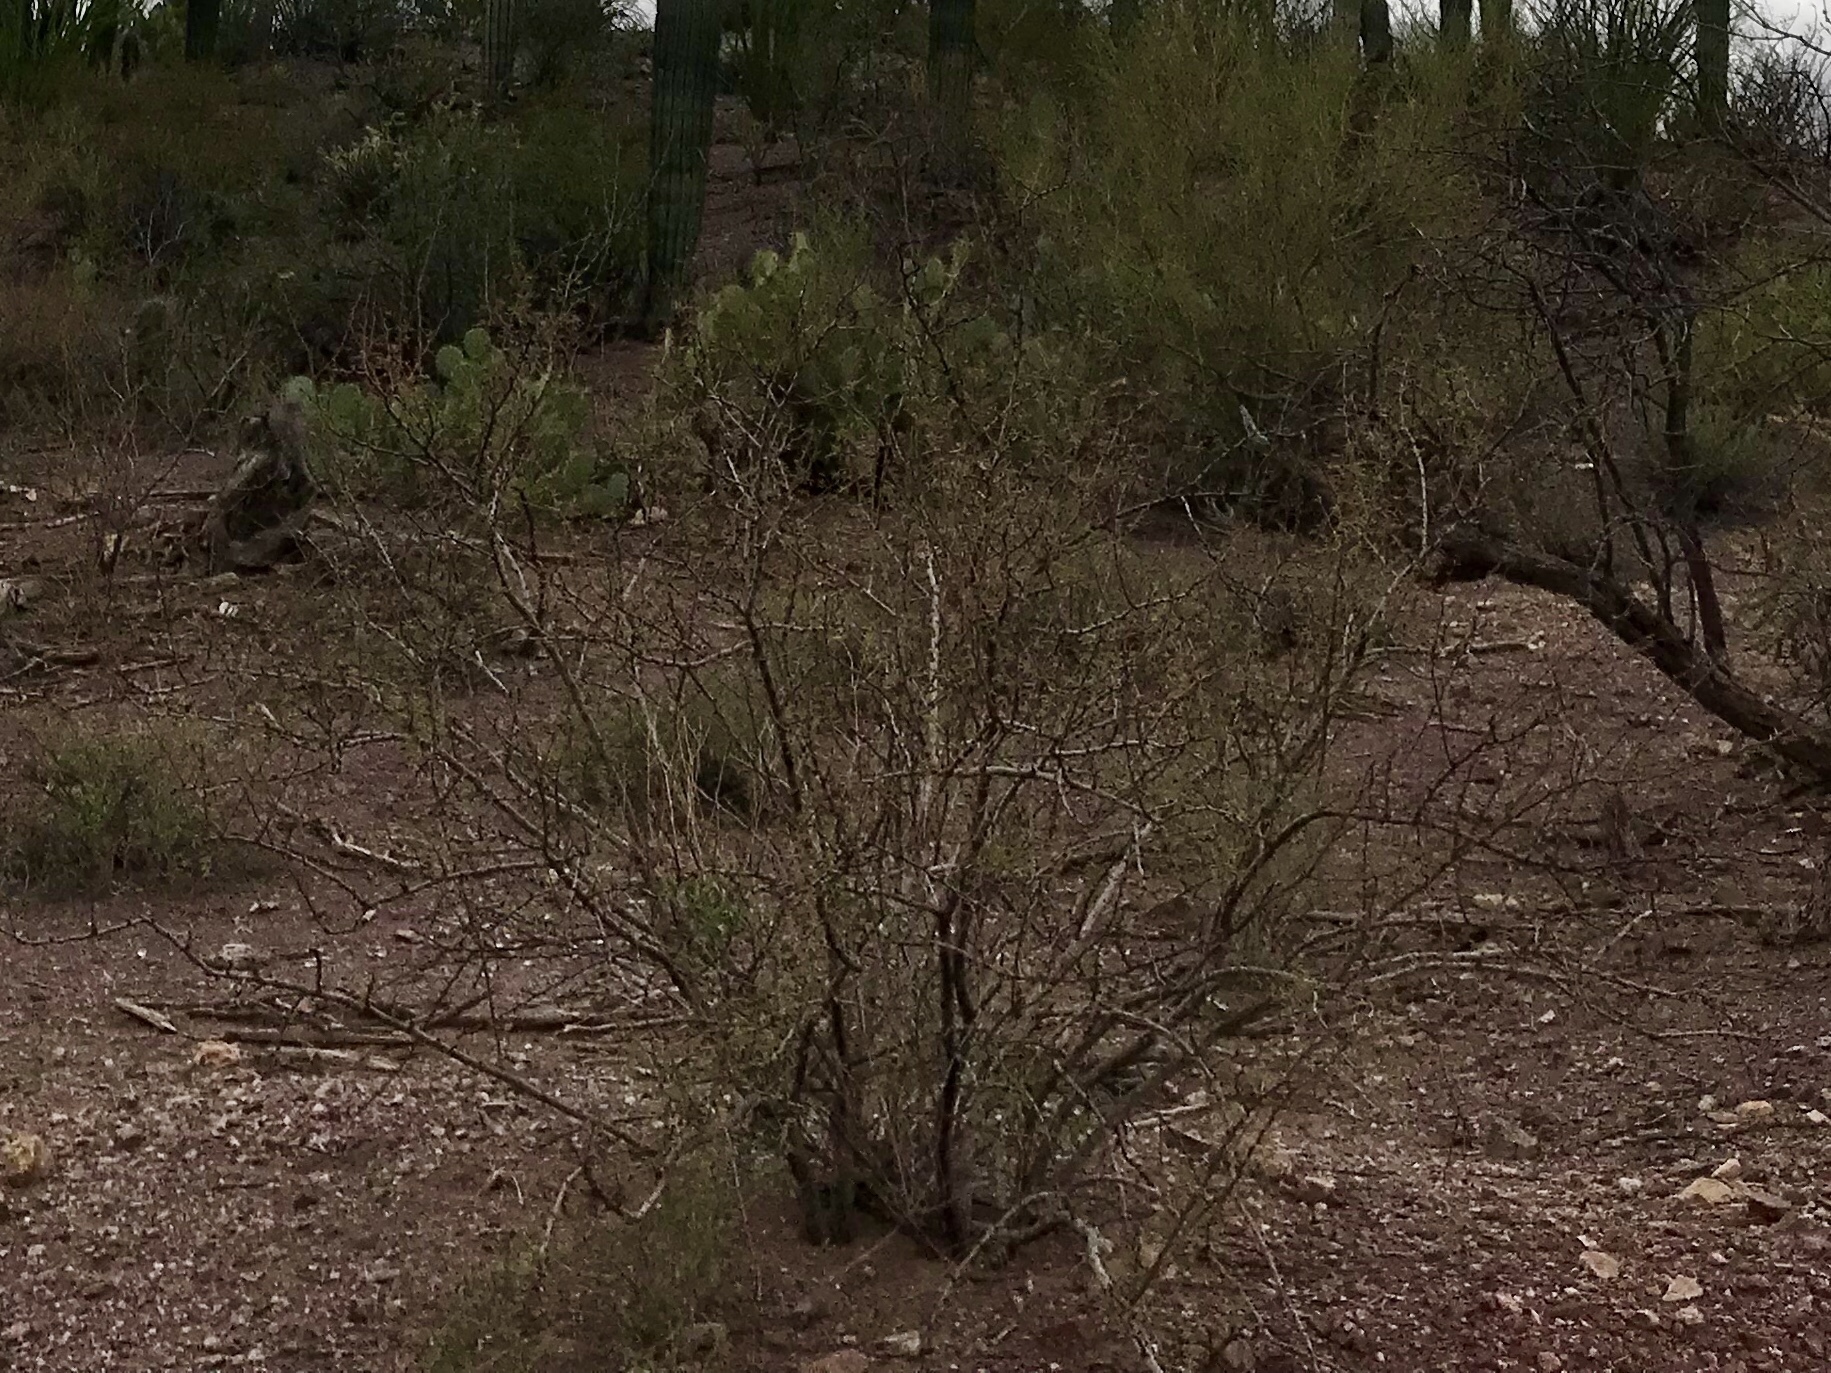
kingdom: Plantae
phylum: Tracheophyta
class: Magnoliopsida
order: Zygophyllales
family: Zygophyllaceae
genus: Larrea
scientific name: Larrea tridentata
